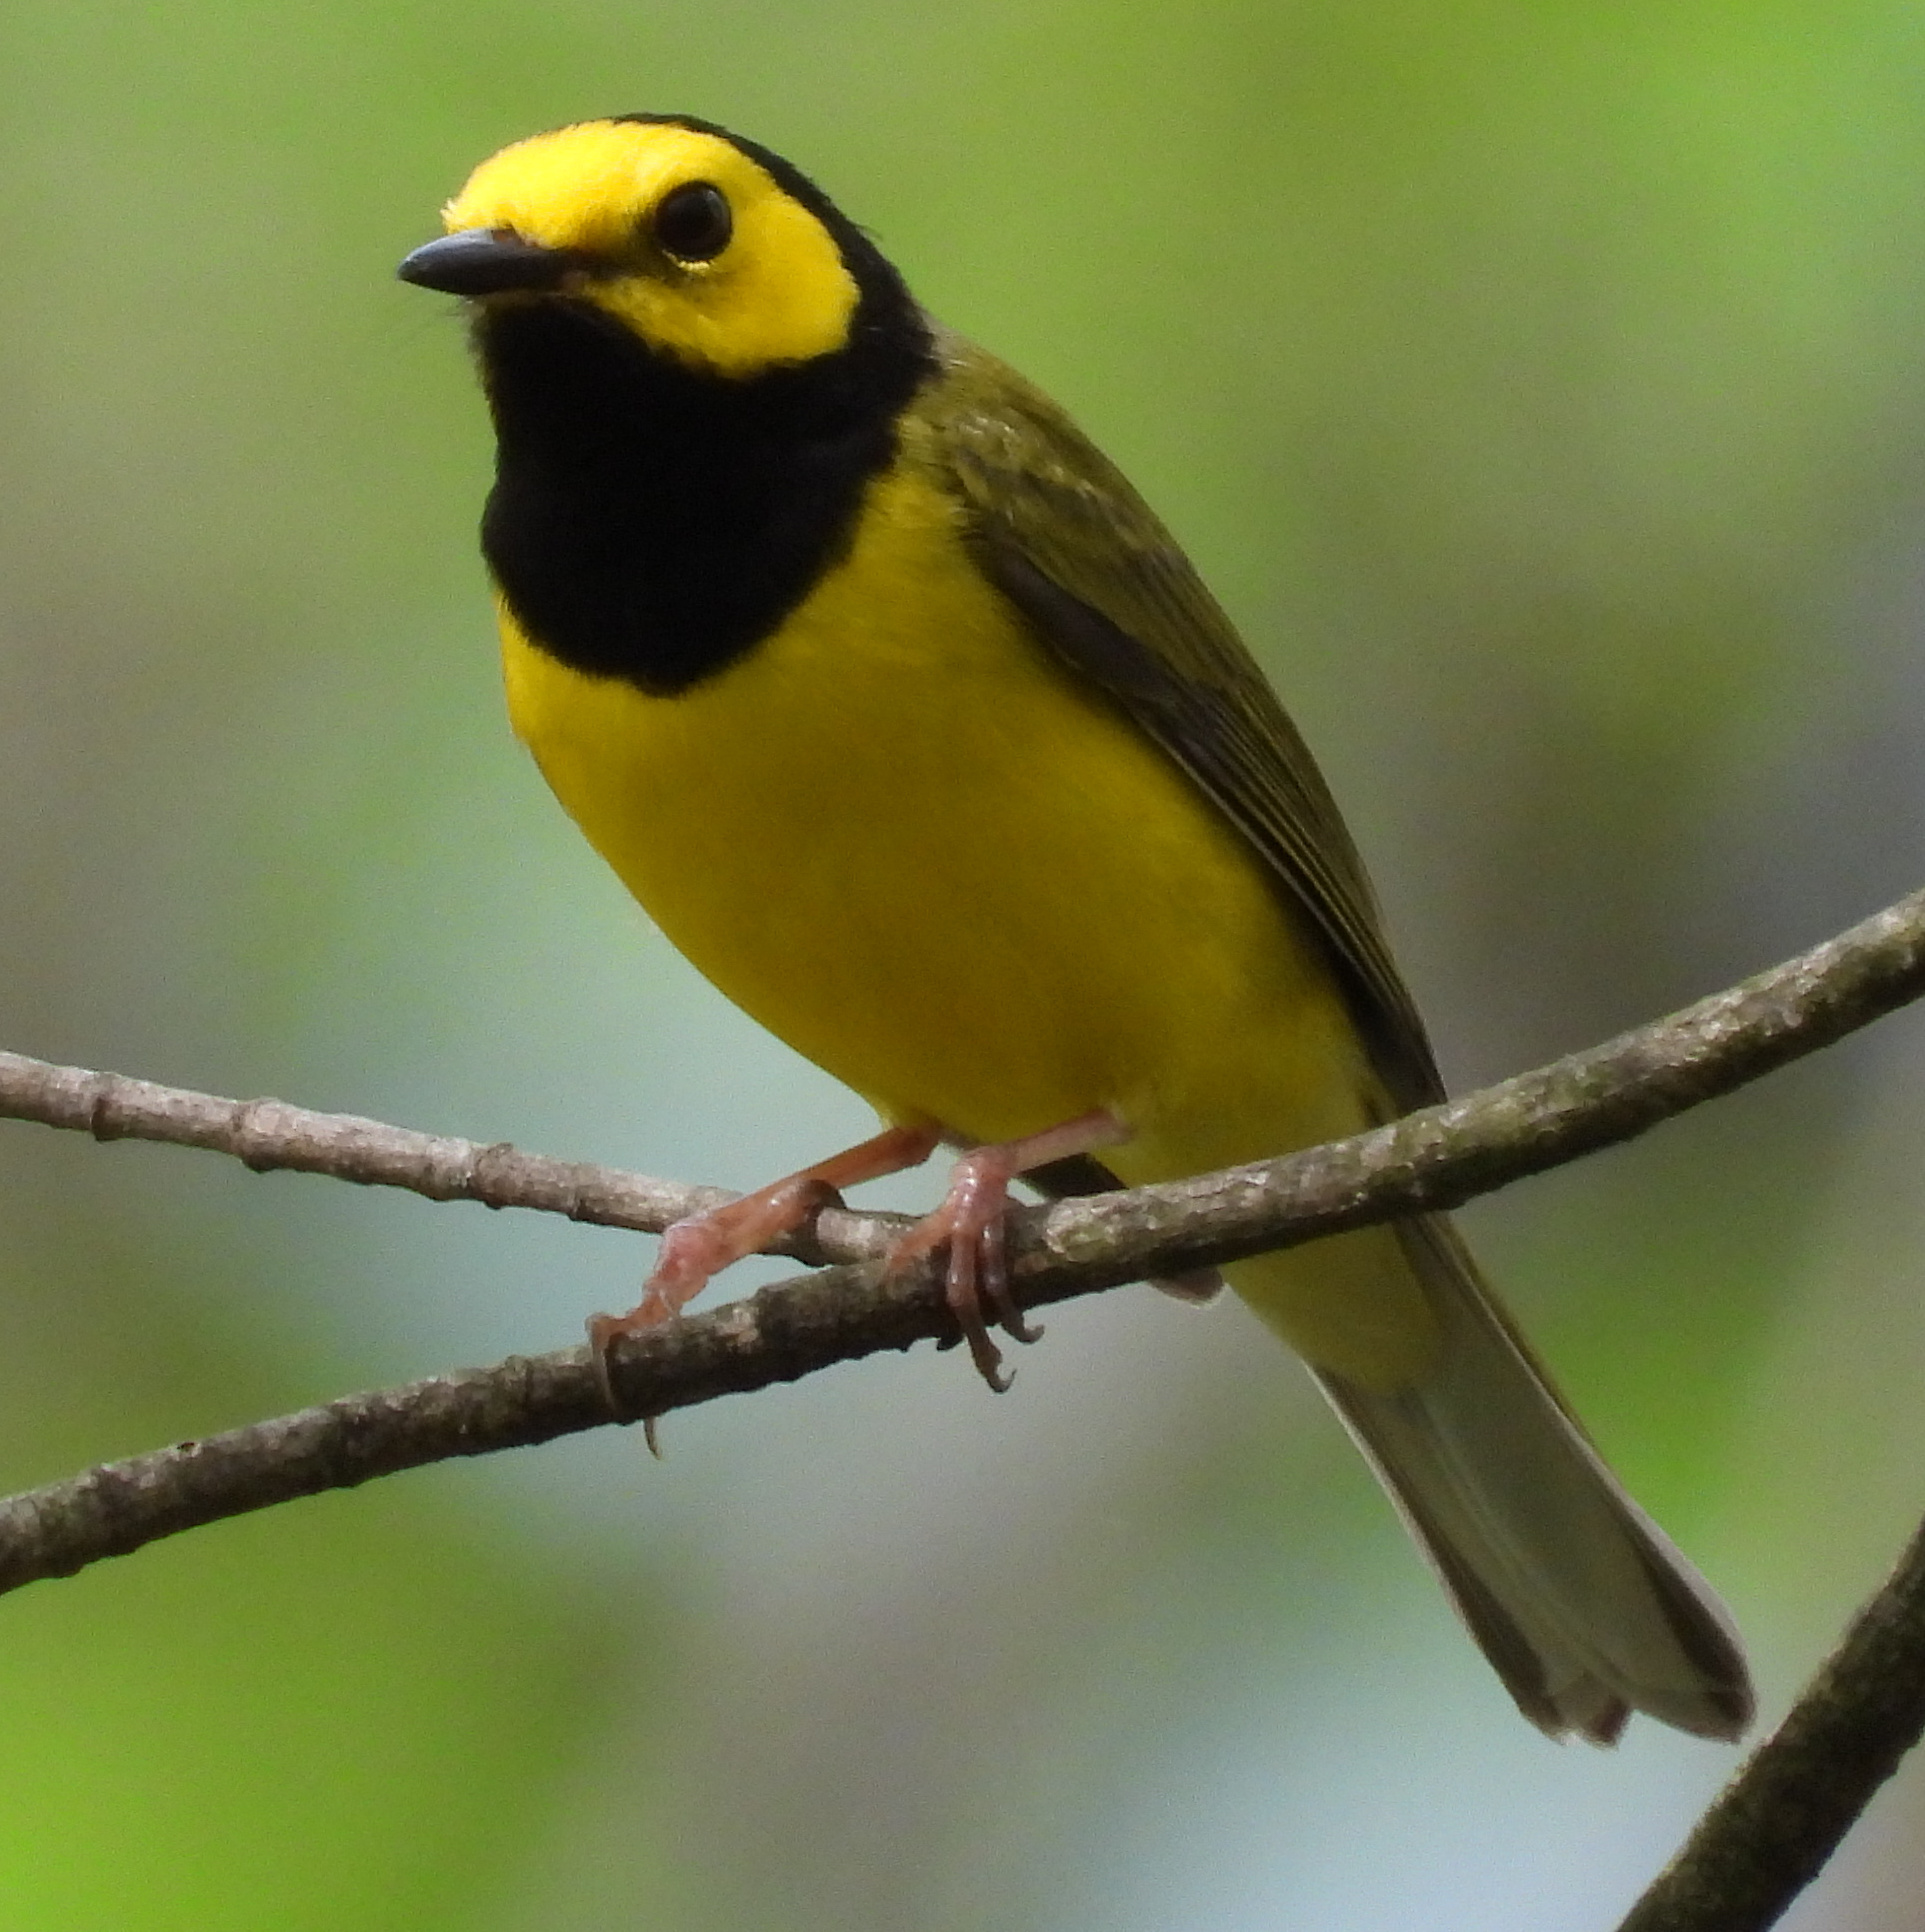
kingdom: Animalia
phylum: Chordata
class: Aves
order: Passeriformes
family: Parulidae
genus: Setophaga
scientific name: Setophaga citrina
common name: Hooded warbler
